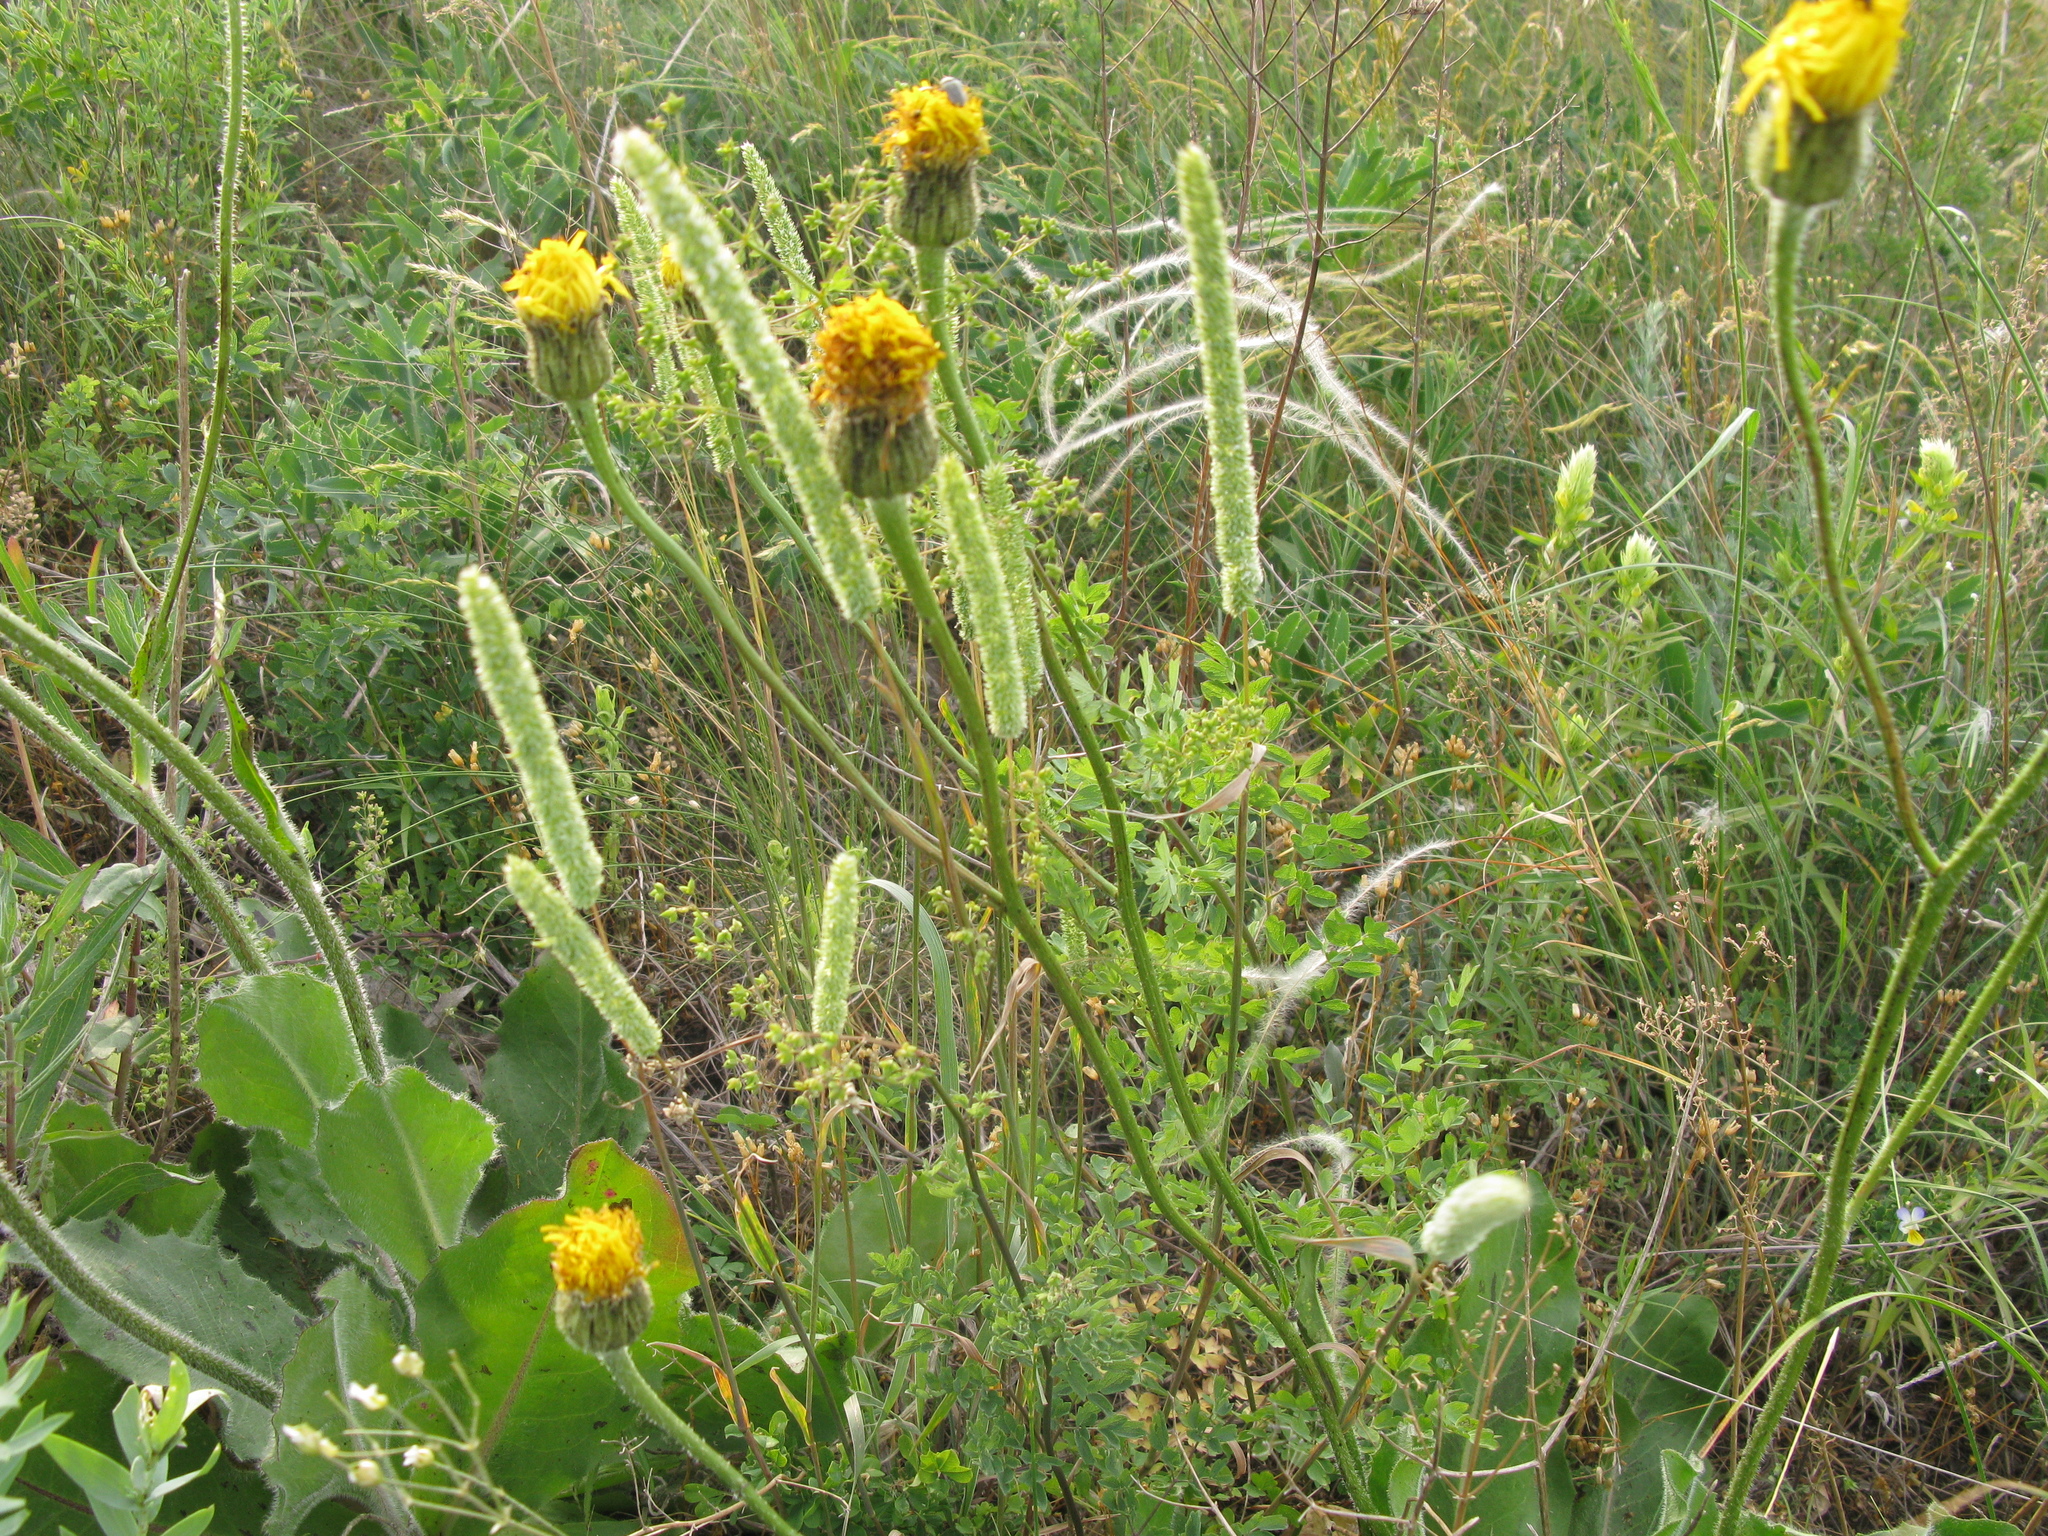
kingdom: Plantae
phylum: Tracheophyta
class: Magnoliopsida
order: Asterales
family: Asteraceae
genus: Trommsdorffia
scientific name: Trommsdorffia maculata
